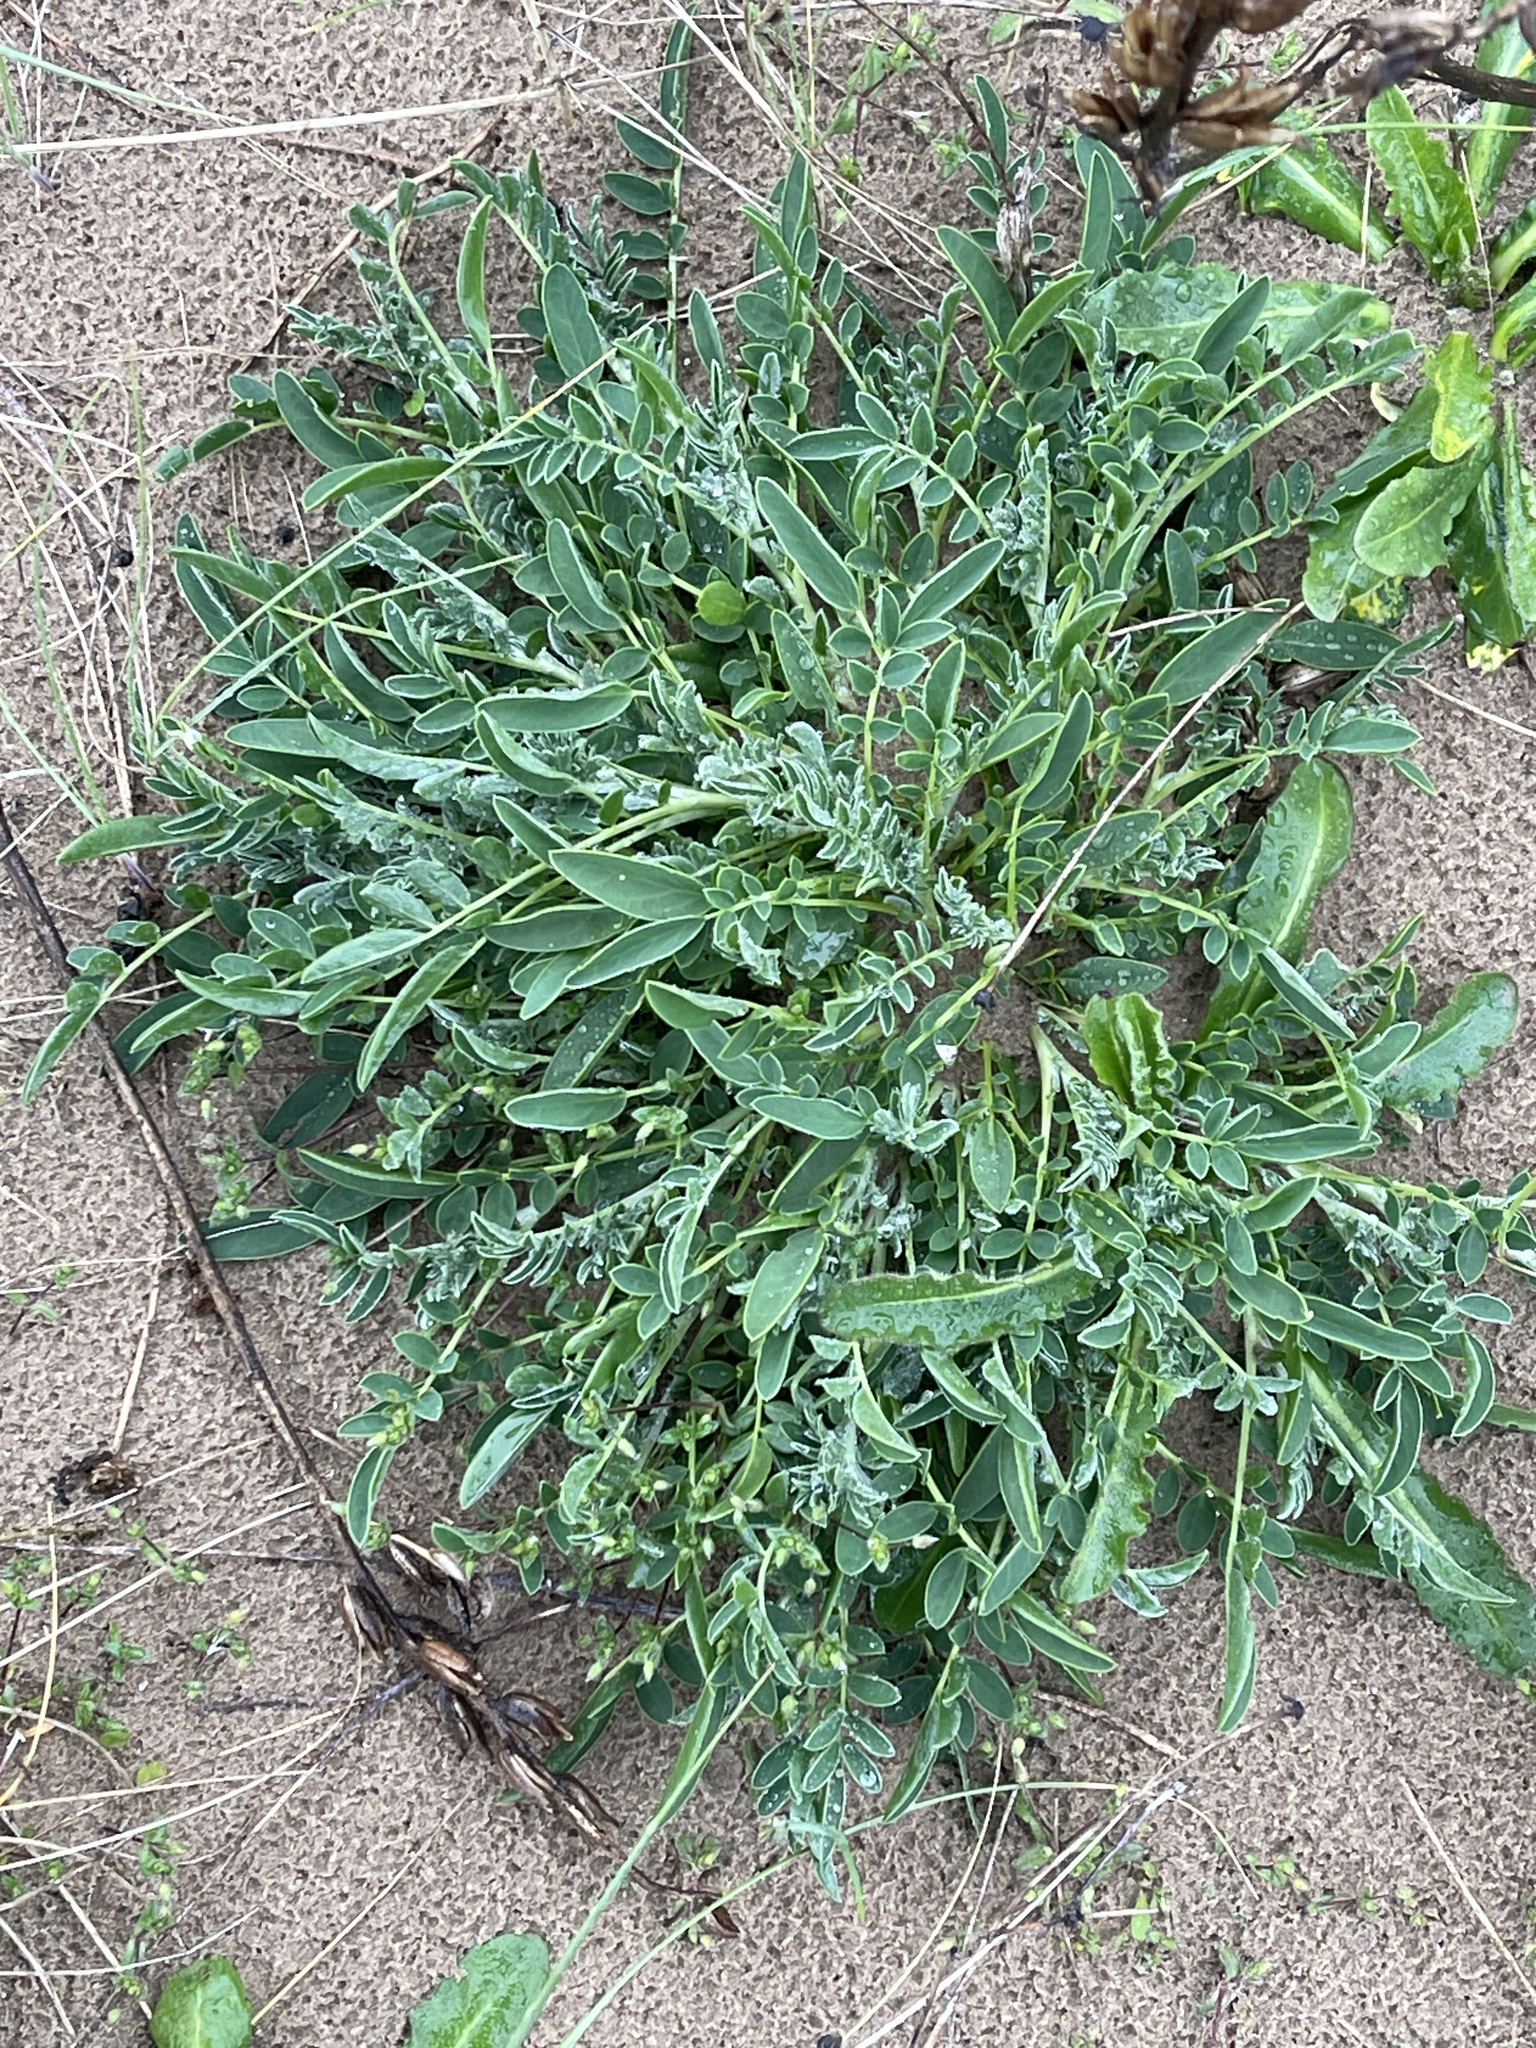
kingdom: Plantae
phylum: Tracheophyta
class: Magnoliopsida
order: Fabales
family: Fabaceae
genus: Anthyllis
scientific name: Anthyllis vulneraria
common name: Kidney vetch
